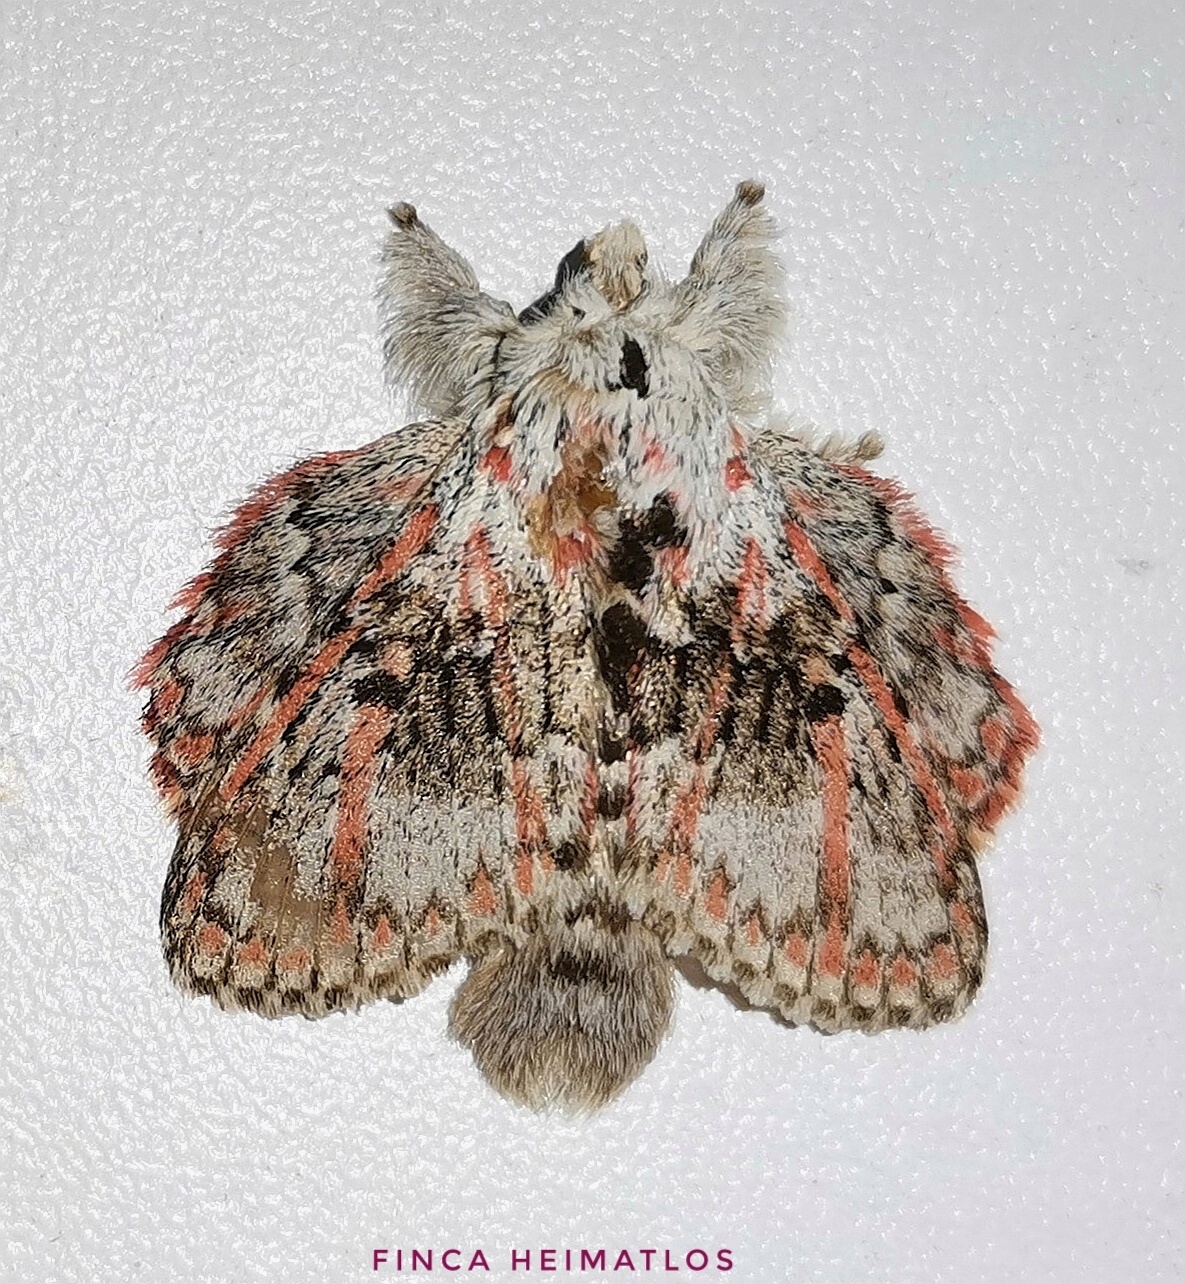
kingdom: Animalia
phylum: Arthropoda
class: Insecta
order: Lepidoptera
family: Lasiocampidae
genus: Euglyphis
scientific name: Euglyphis gibea
